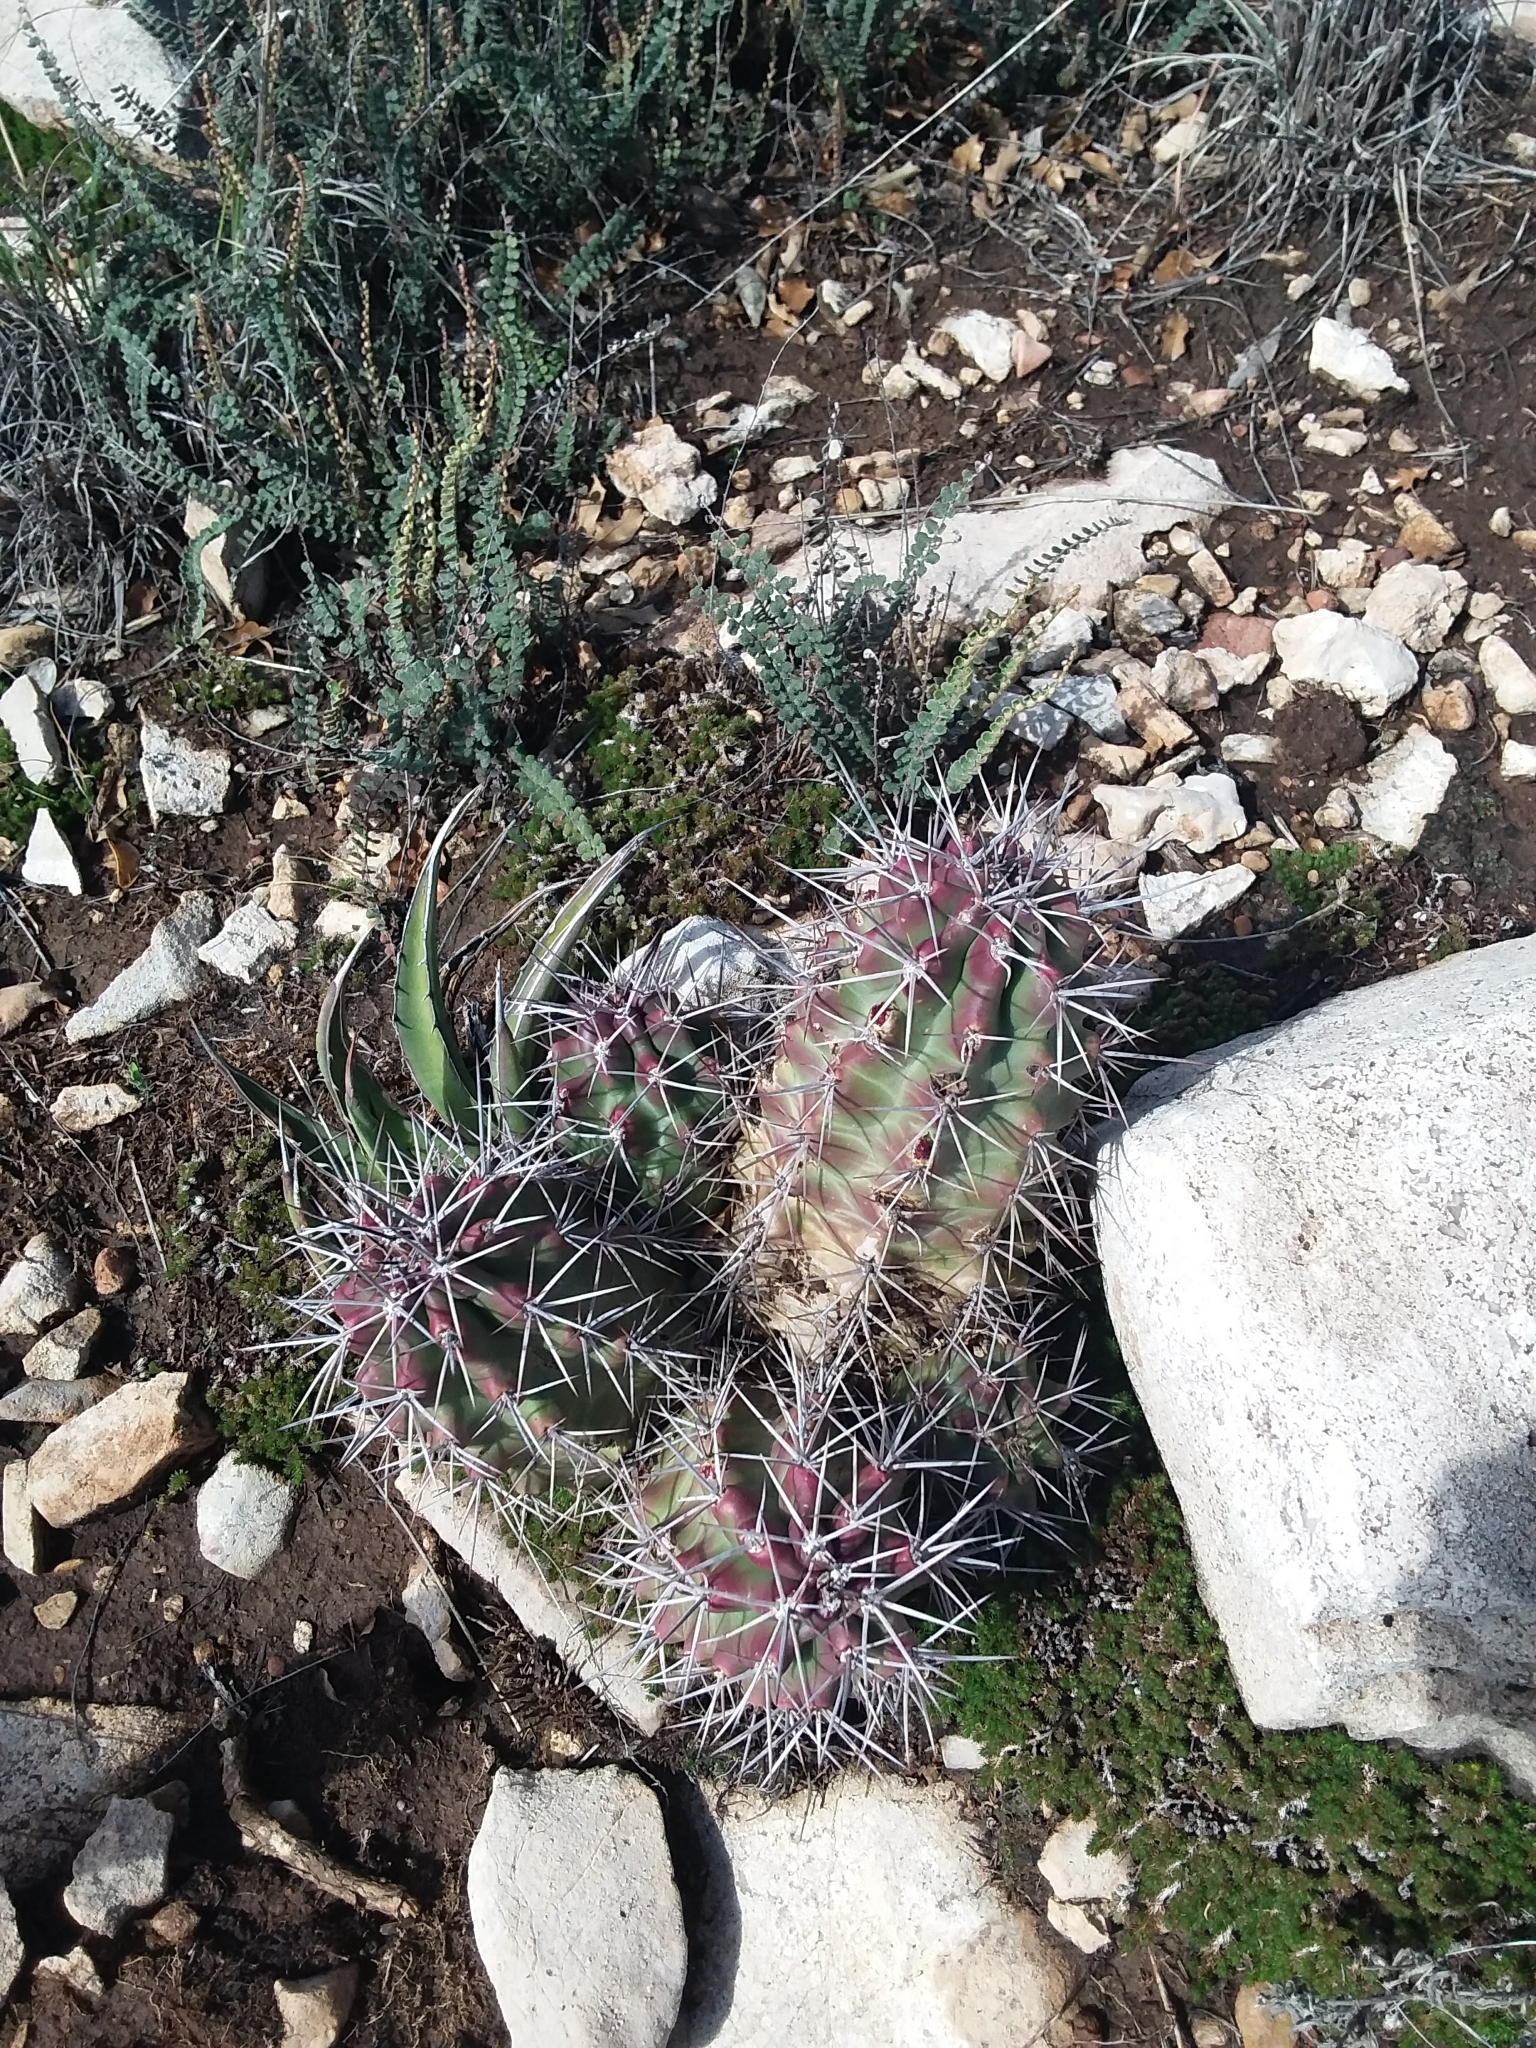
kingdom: Plantae
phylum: Tracheophyta
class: Magnoliopsida
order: Caryophyllales
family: Cactaceae
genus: Echinocereus
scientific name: Echinocereus coccineus
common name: Scarlet hedgehog cactus
